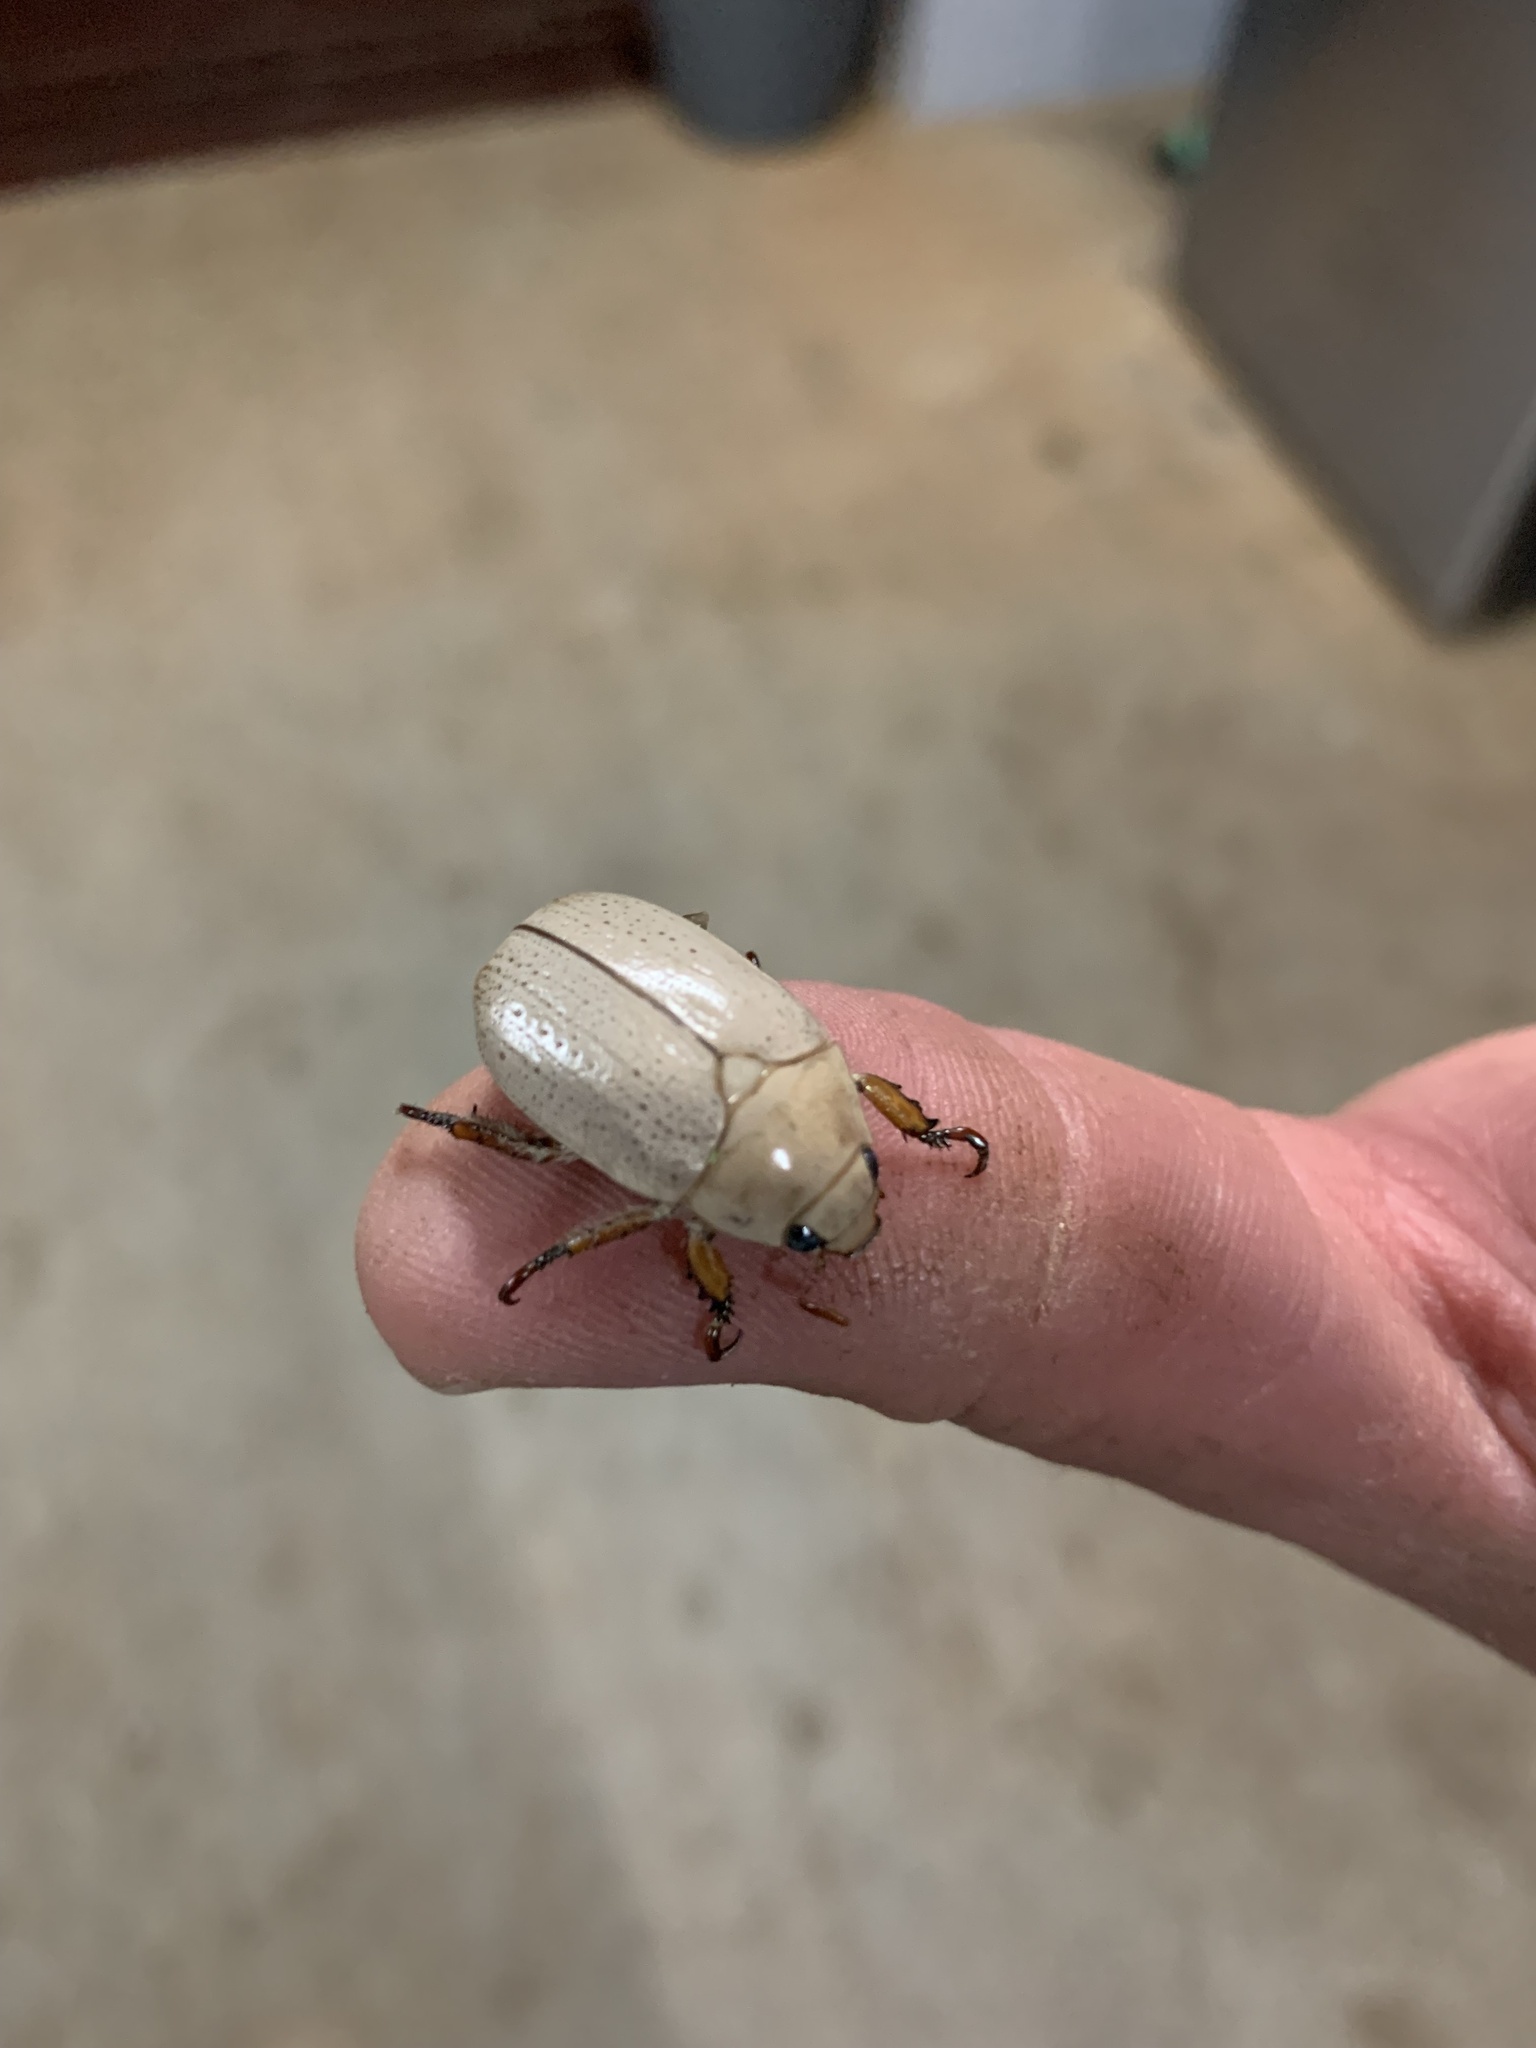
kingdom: Animalia
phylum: Arthropoda
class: Insecta
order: Coleoptera
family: Scarabaeidae
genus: Anoplognathus
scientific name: Anoplognathus pallidicollis
